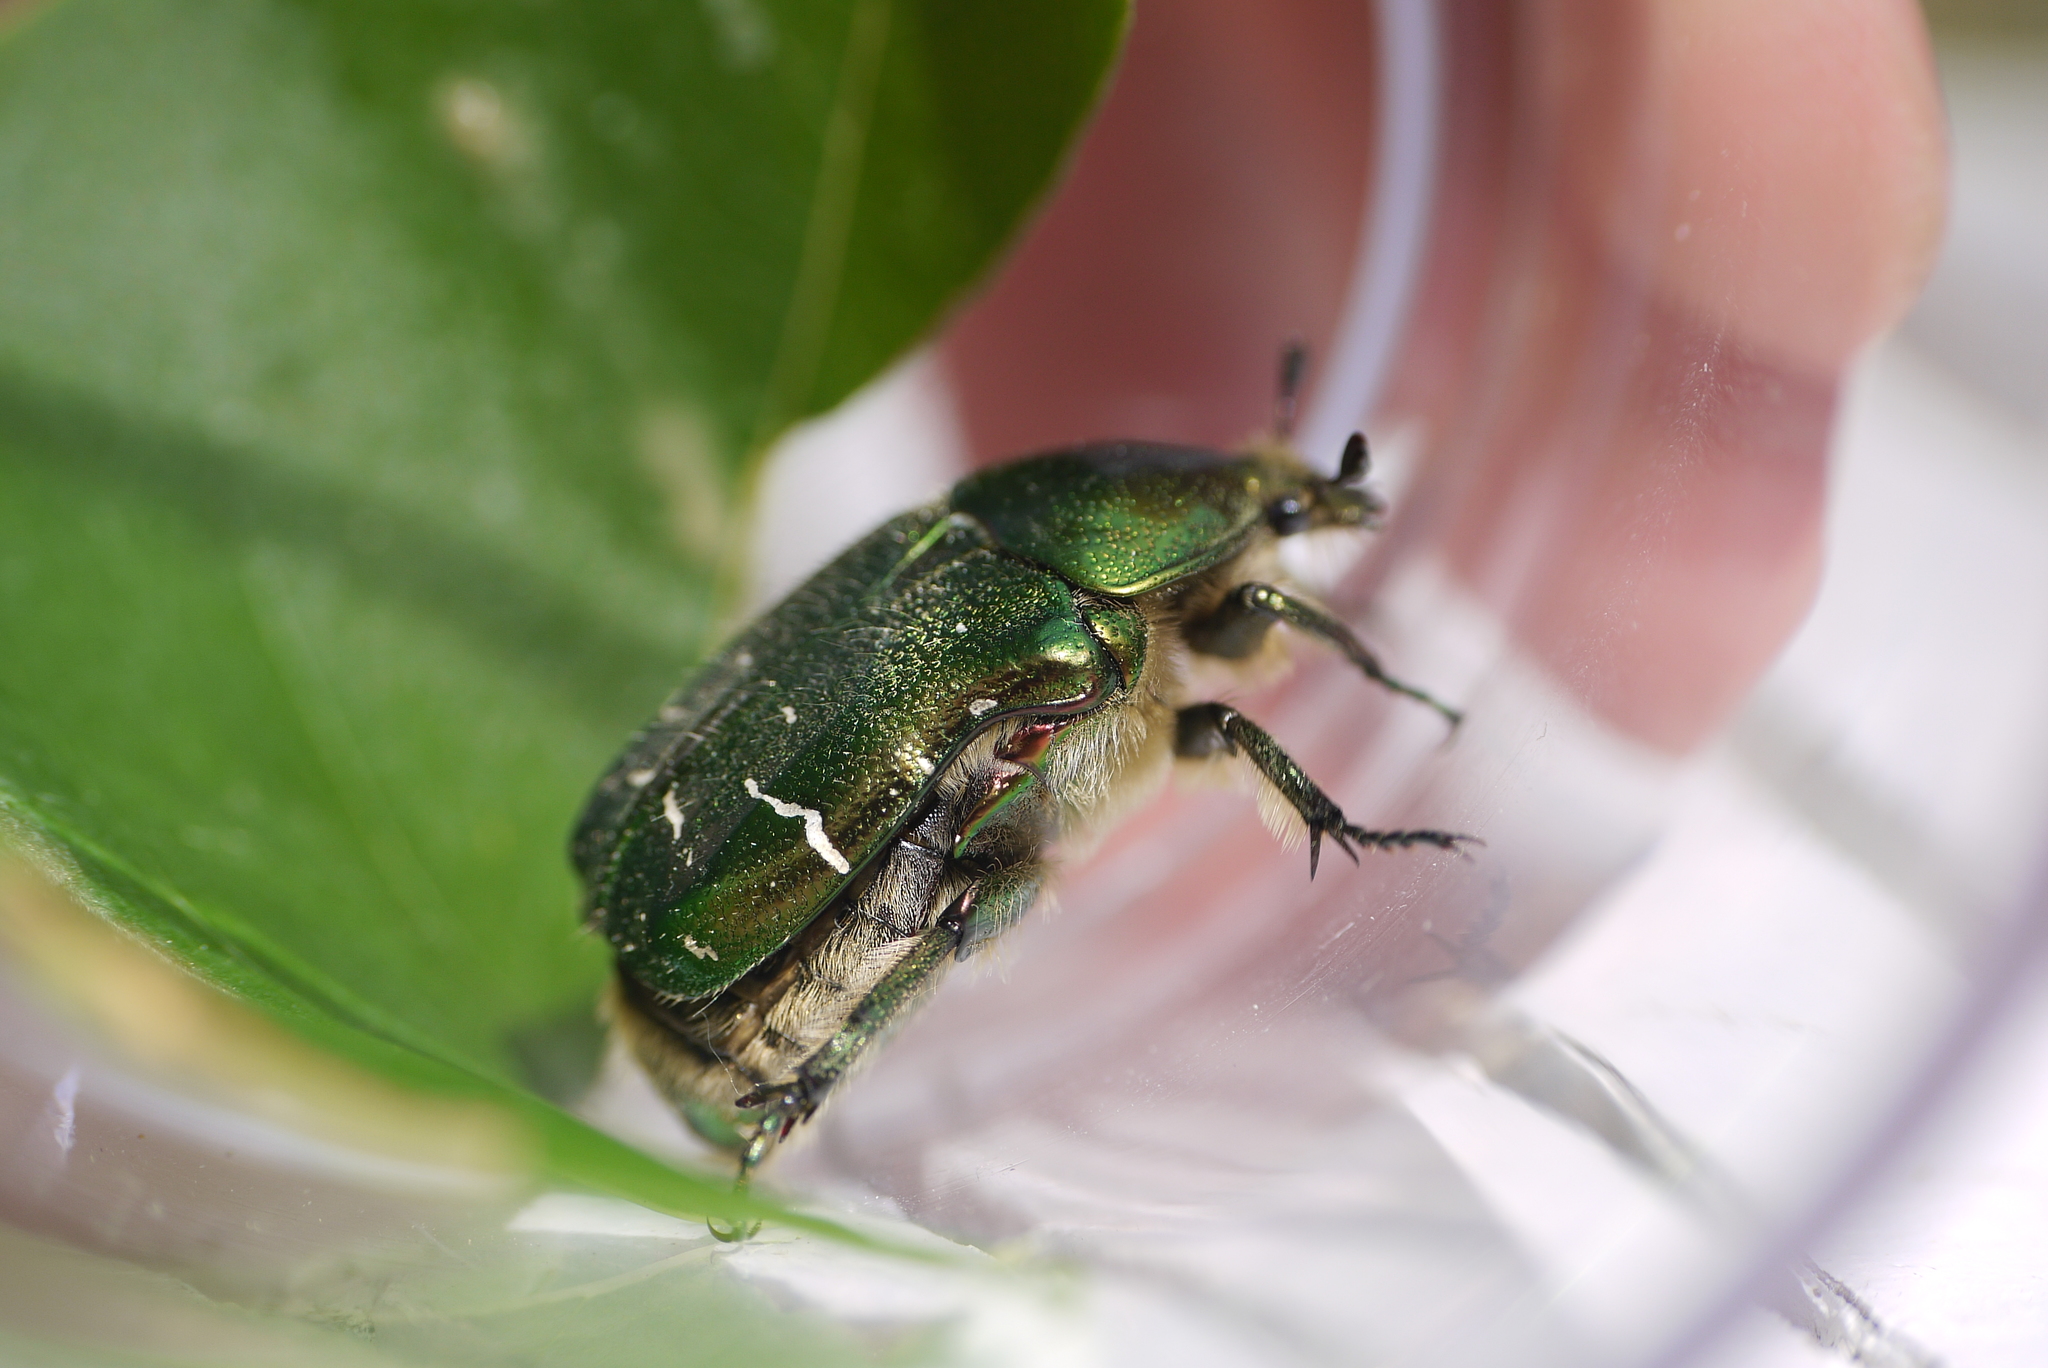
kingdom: Animalia
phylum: Arthropoda
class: Insecta
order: Coleoptera
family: Scarabaeidae
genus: Cetonia
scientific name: Cetonia aurata
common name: Rose chafer
